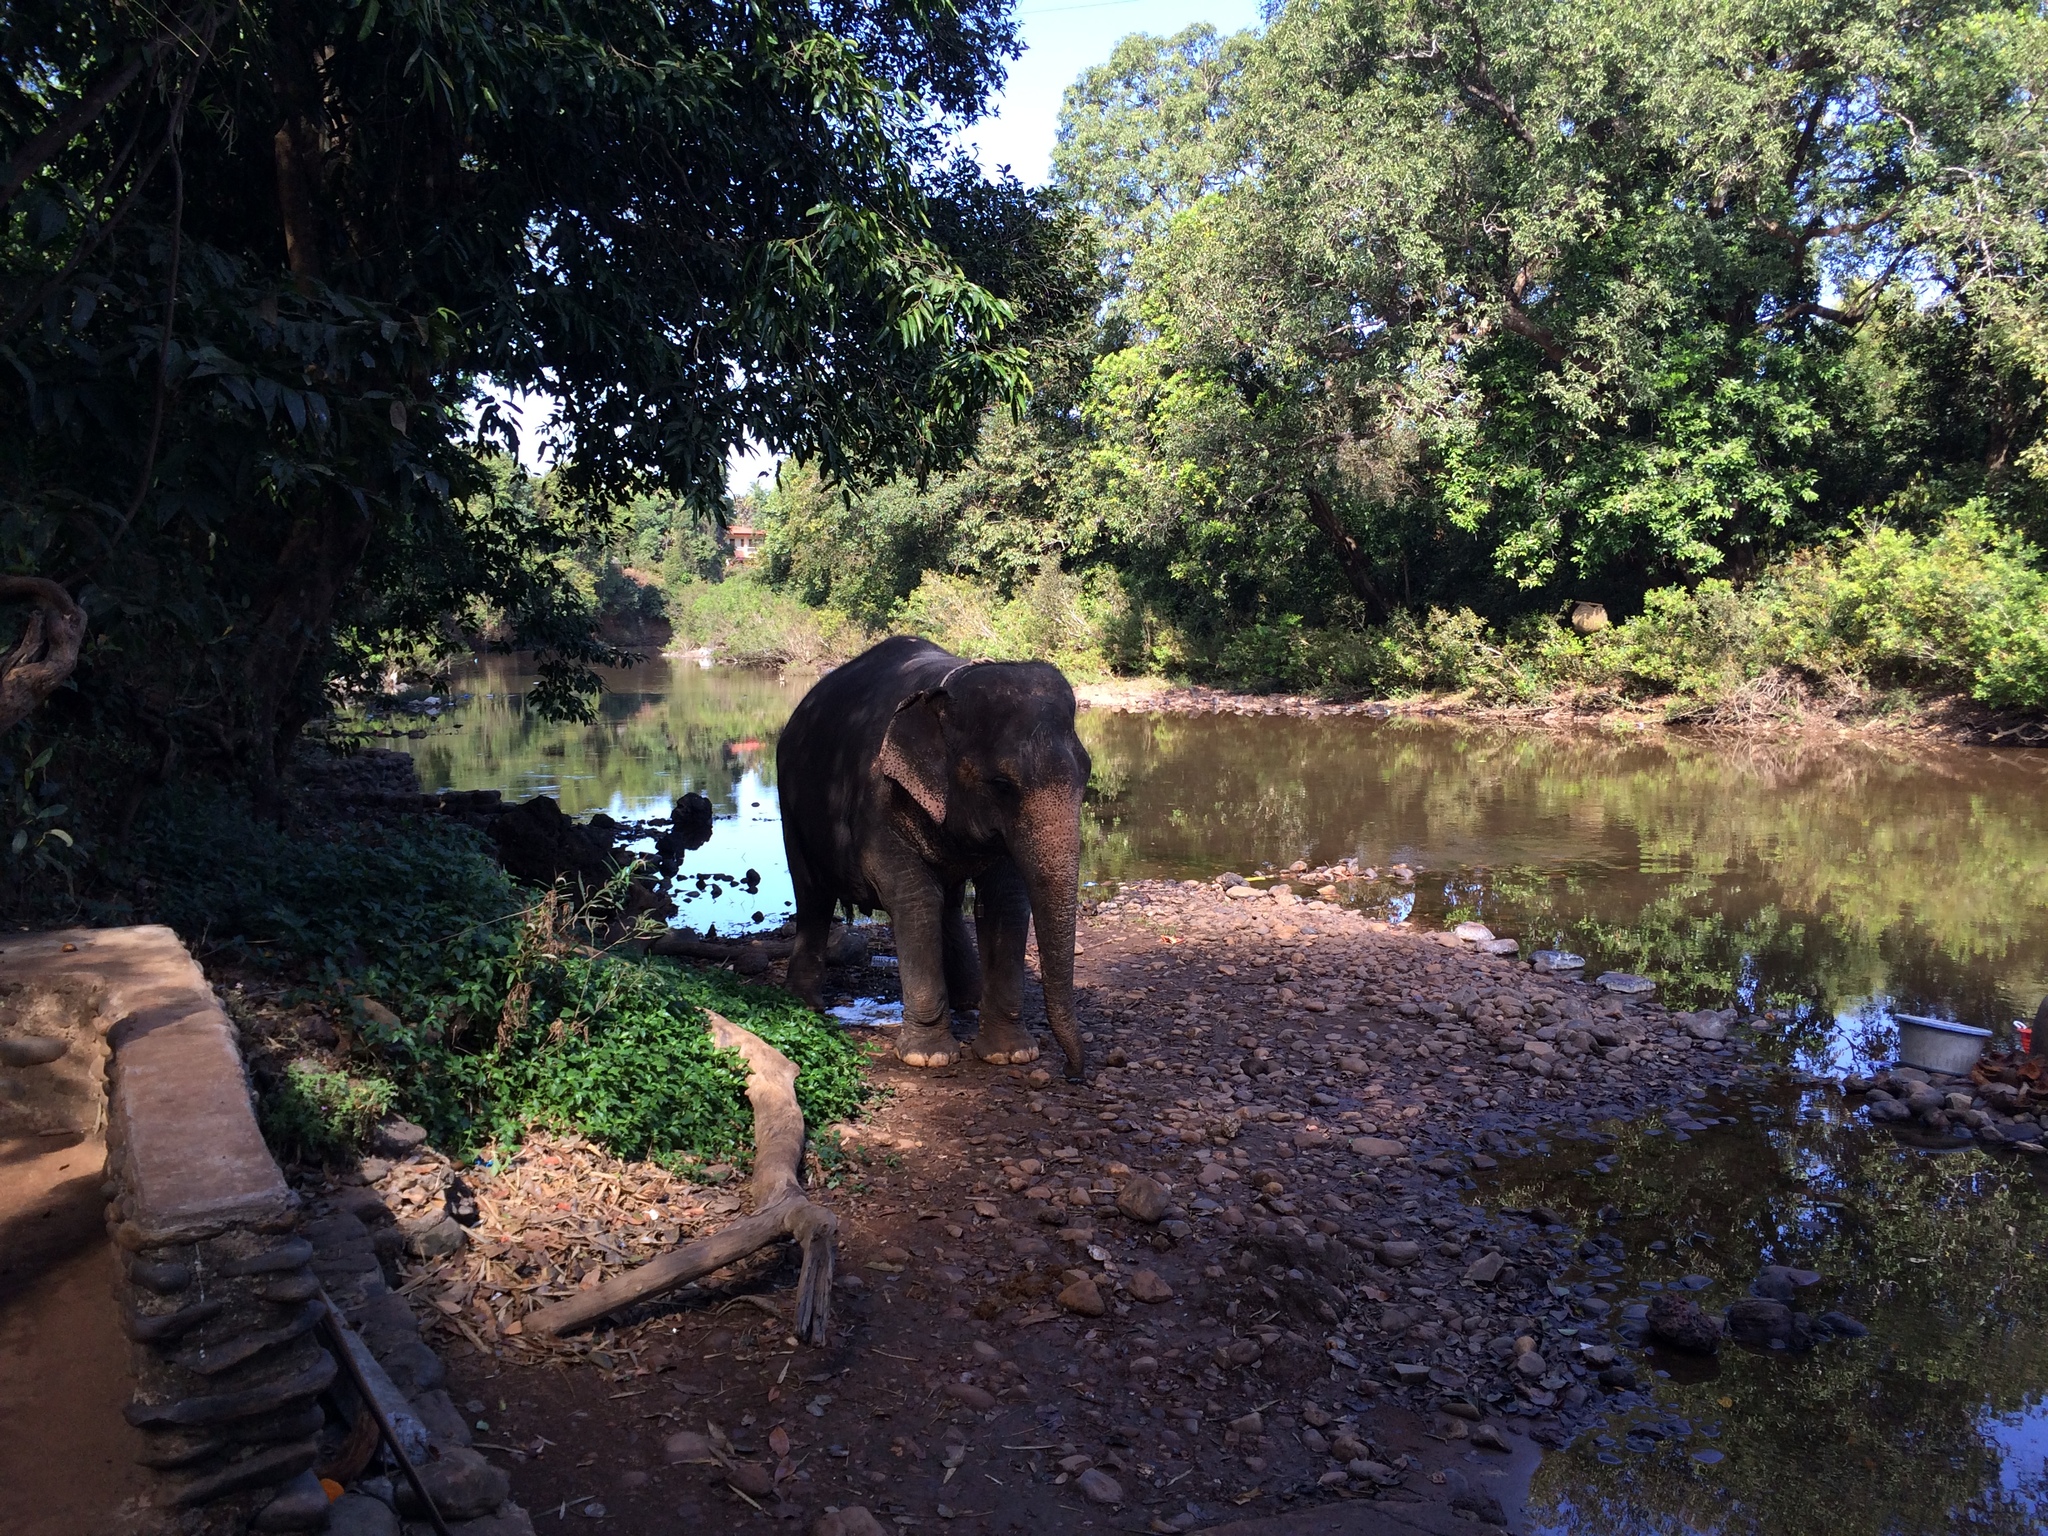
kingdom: Animalia
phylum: Chordata
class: Mammalia
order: Proboscidea
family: Elephantidae
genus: Elephas
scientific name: Elephas maximus
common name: Asian elephant
